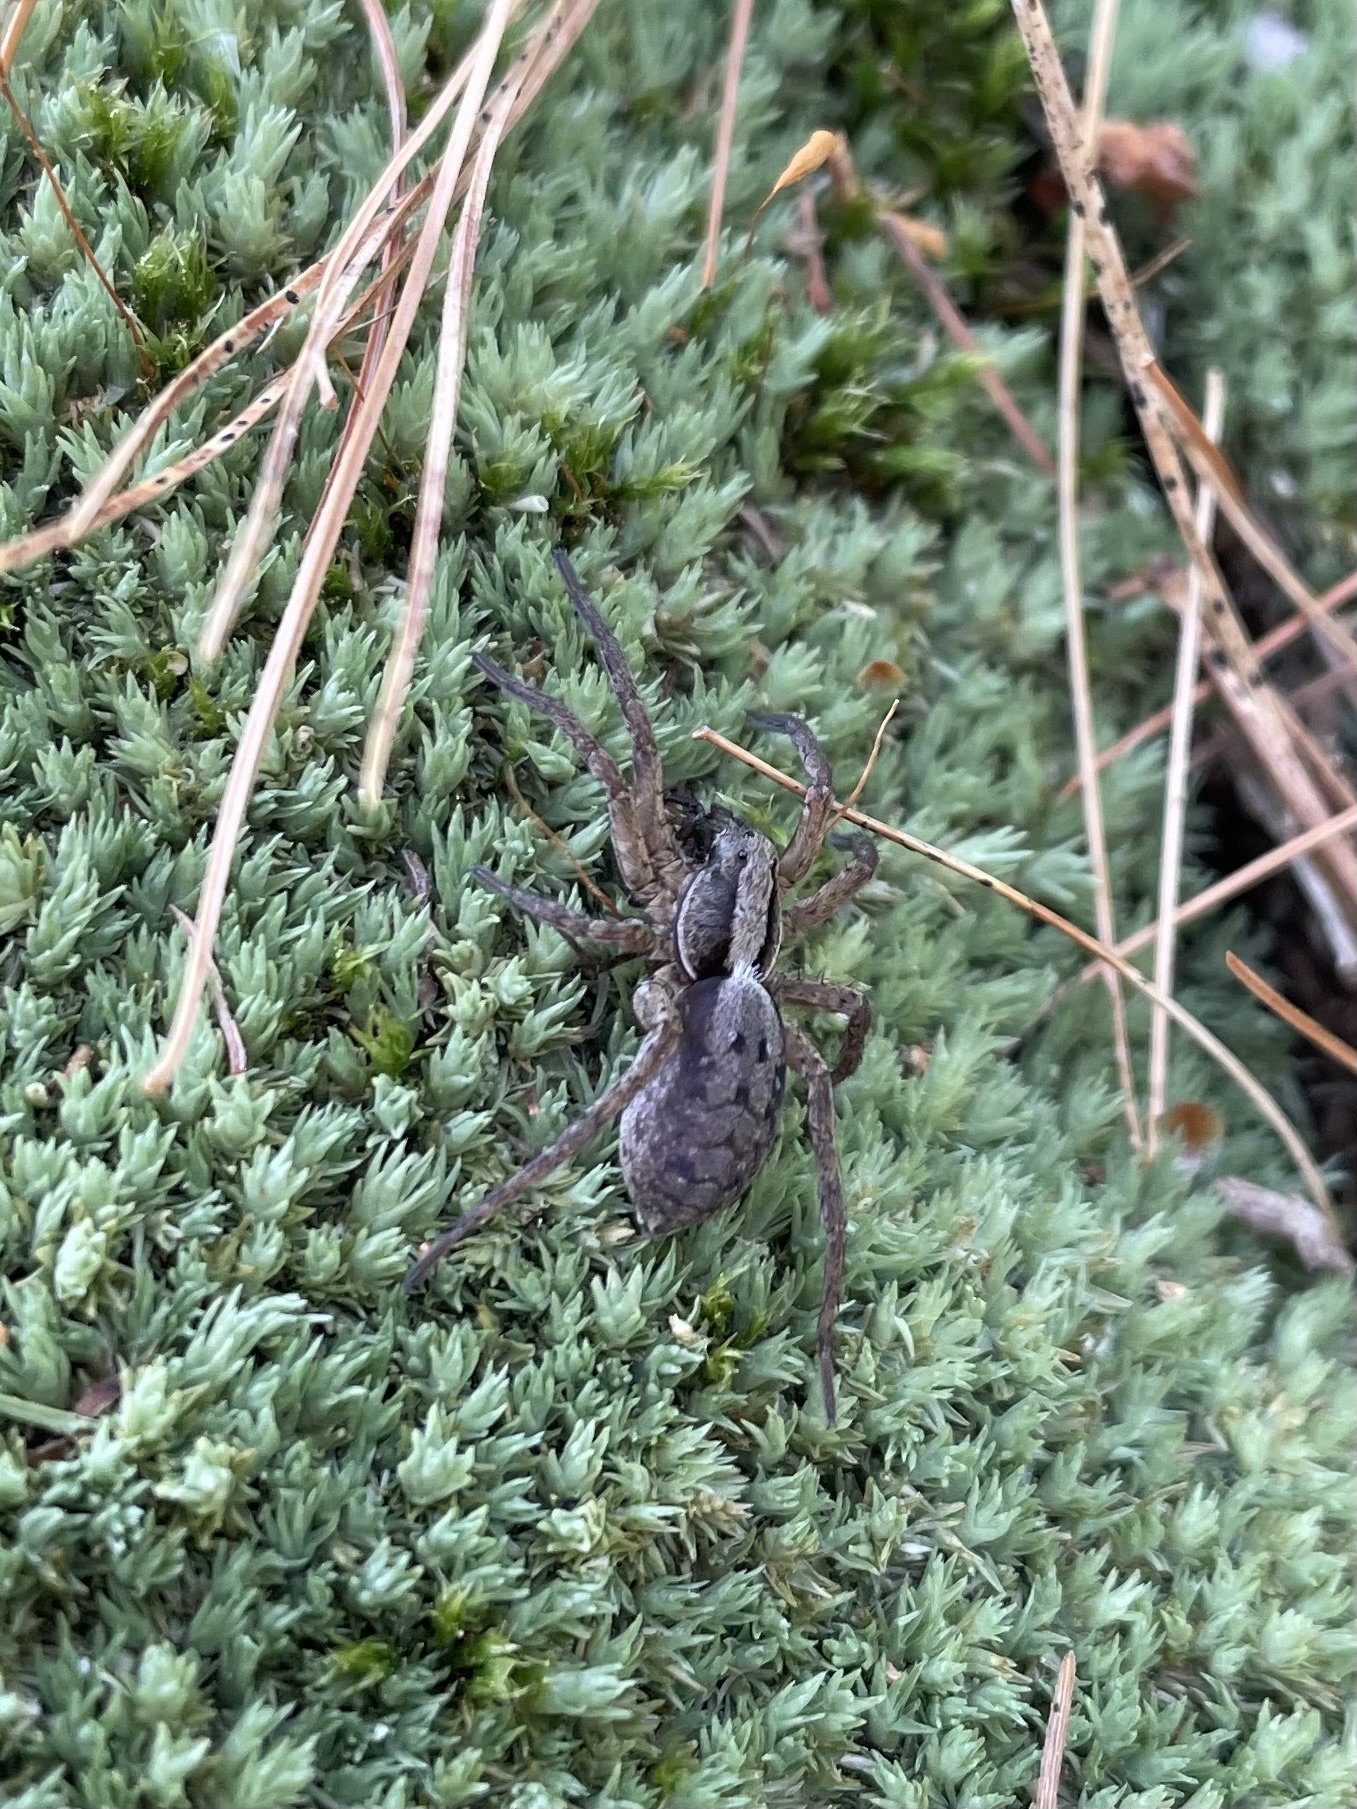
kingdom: Animalia
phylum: Arthropoda
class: Arachnida
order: Araneae
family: Lycosidae
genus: Hogna
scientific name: Hogna frondicola
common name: Forest wolf spider
